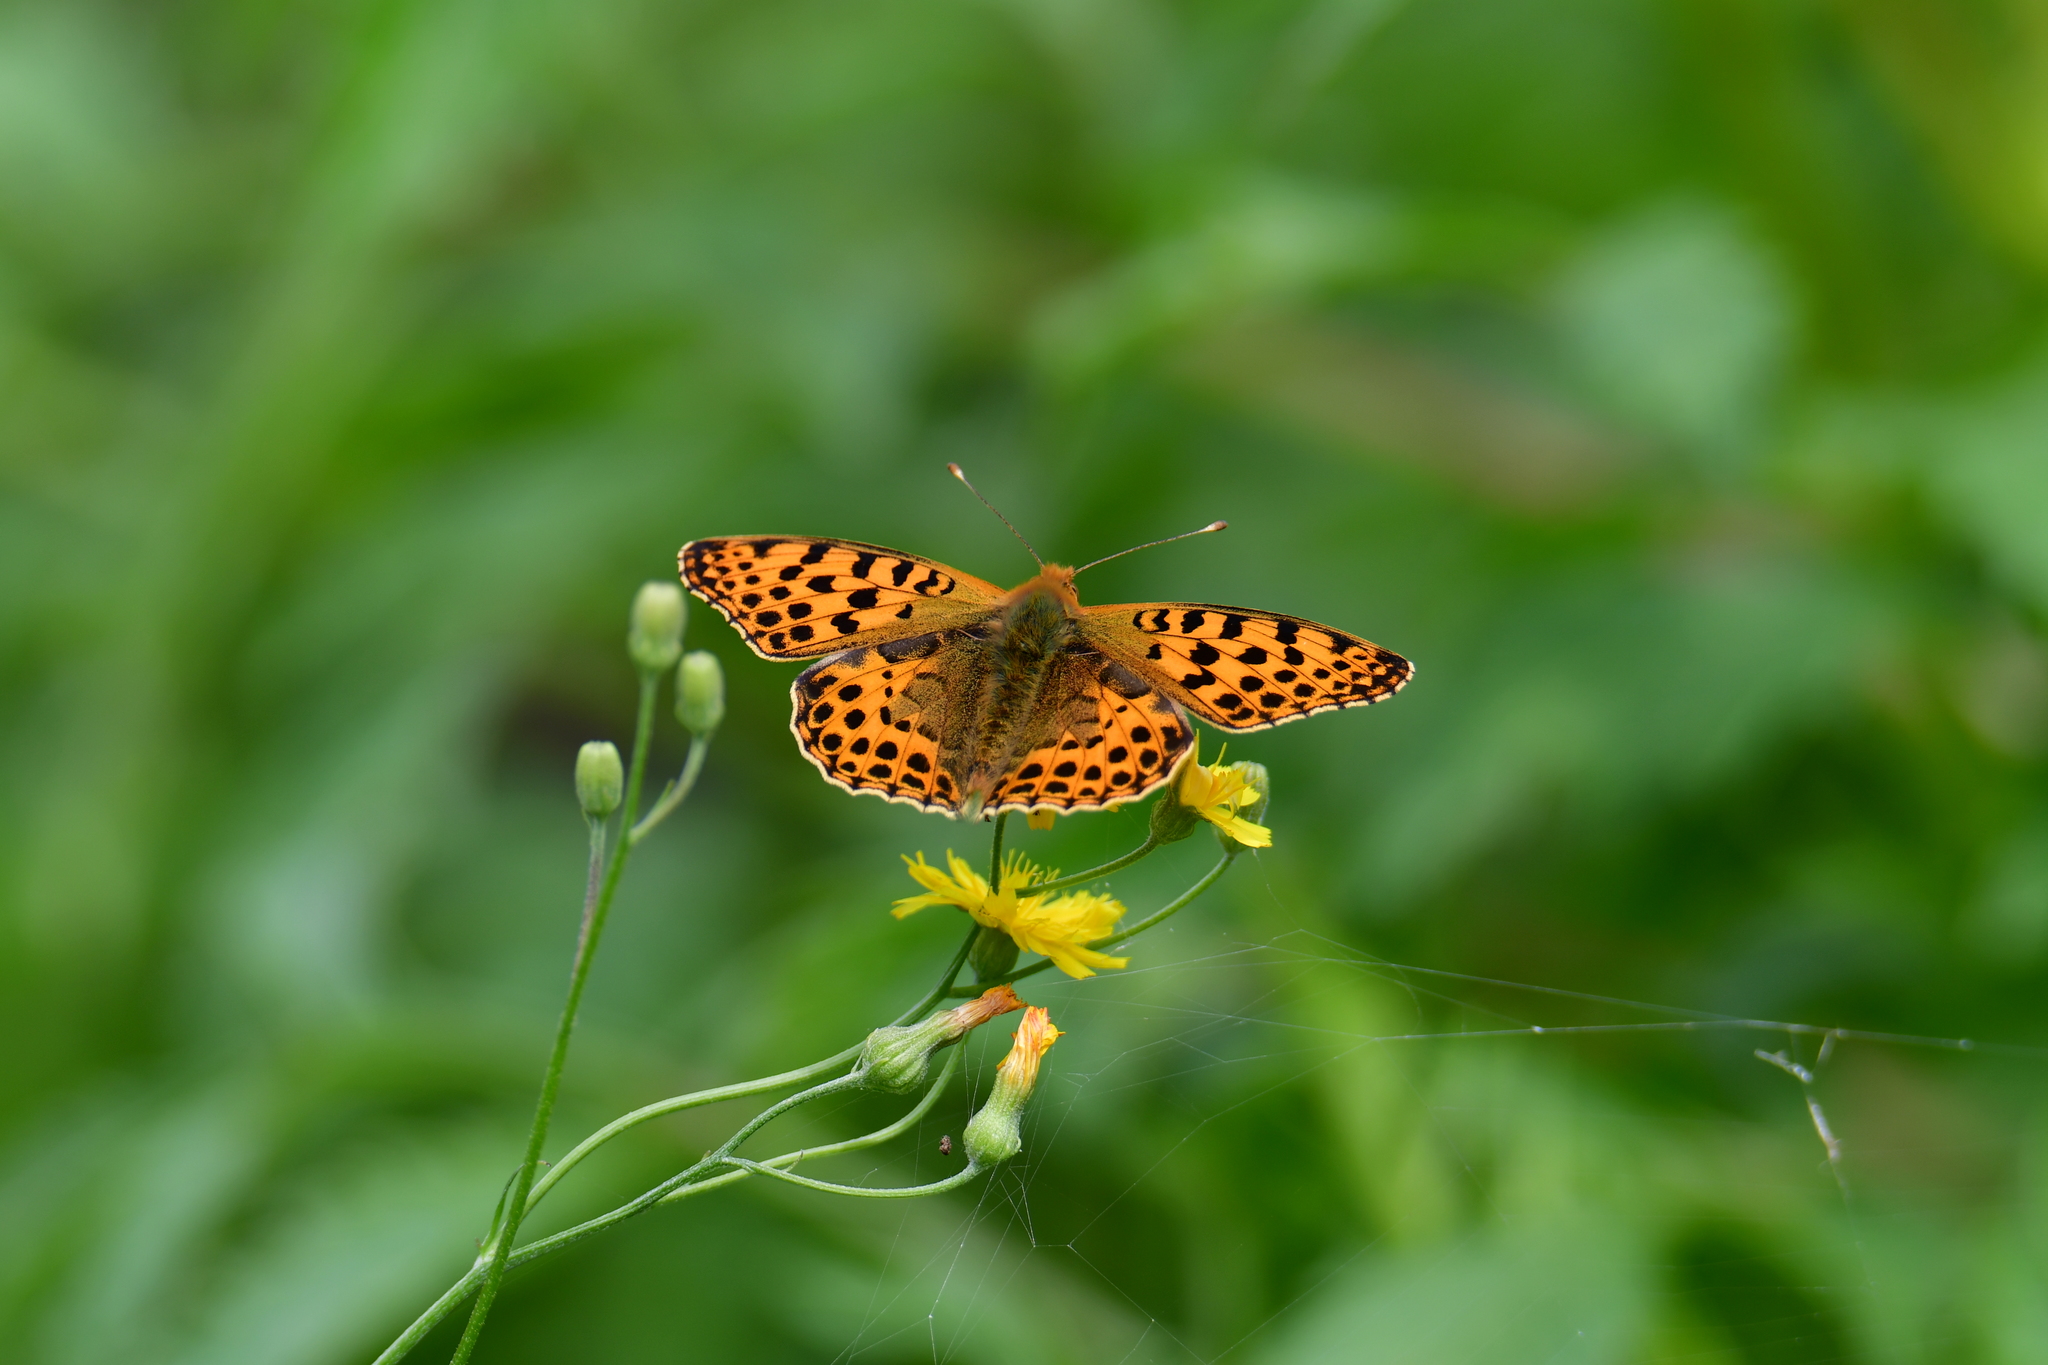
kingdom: Animalia
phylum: Arthropoda
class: Insecta
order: Lepidoptera
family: Nymphalidae
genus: Issoria
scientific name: Issoria lathonia
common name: Queen of spain fritillary
